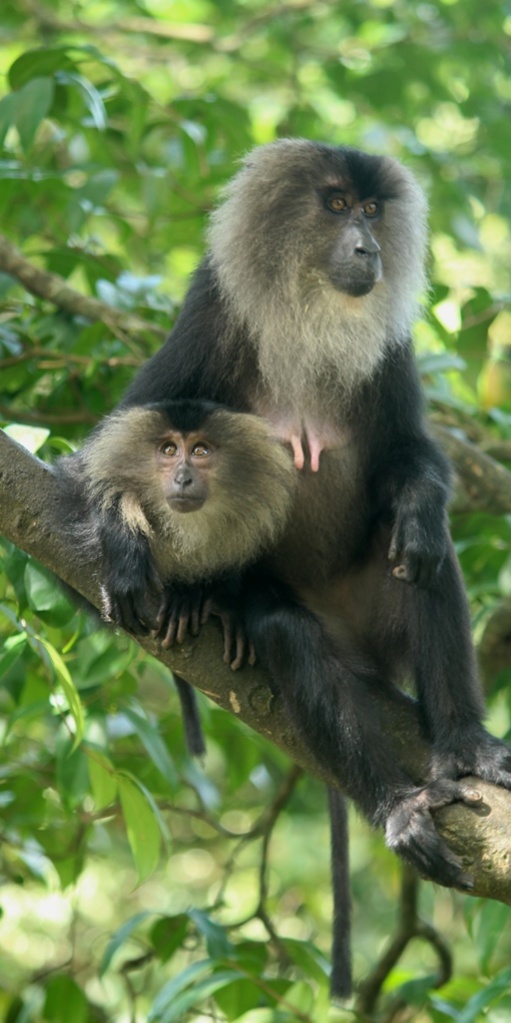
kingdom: Animalia
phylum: Chordata
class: Mammalia
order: Primates
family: Cercopithecidae
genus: Macaca
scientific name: Macaca silenus
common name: Lion-tailed macaque
